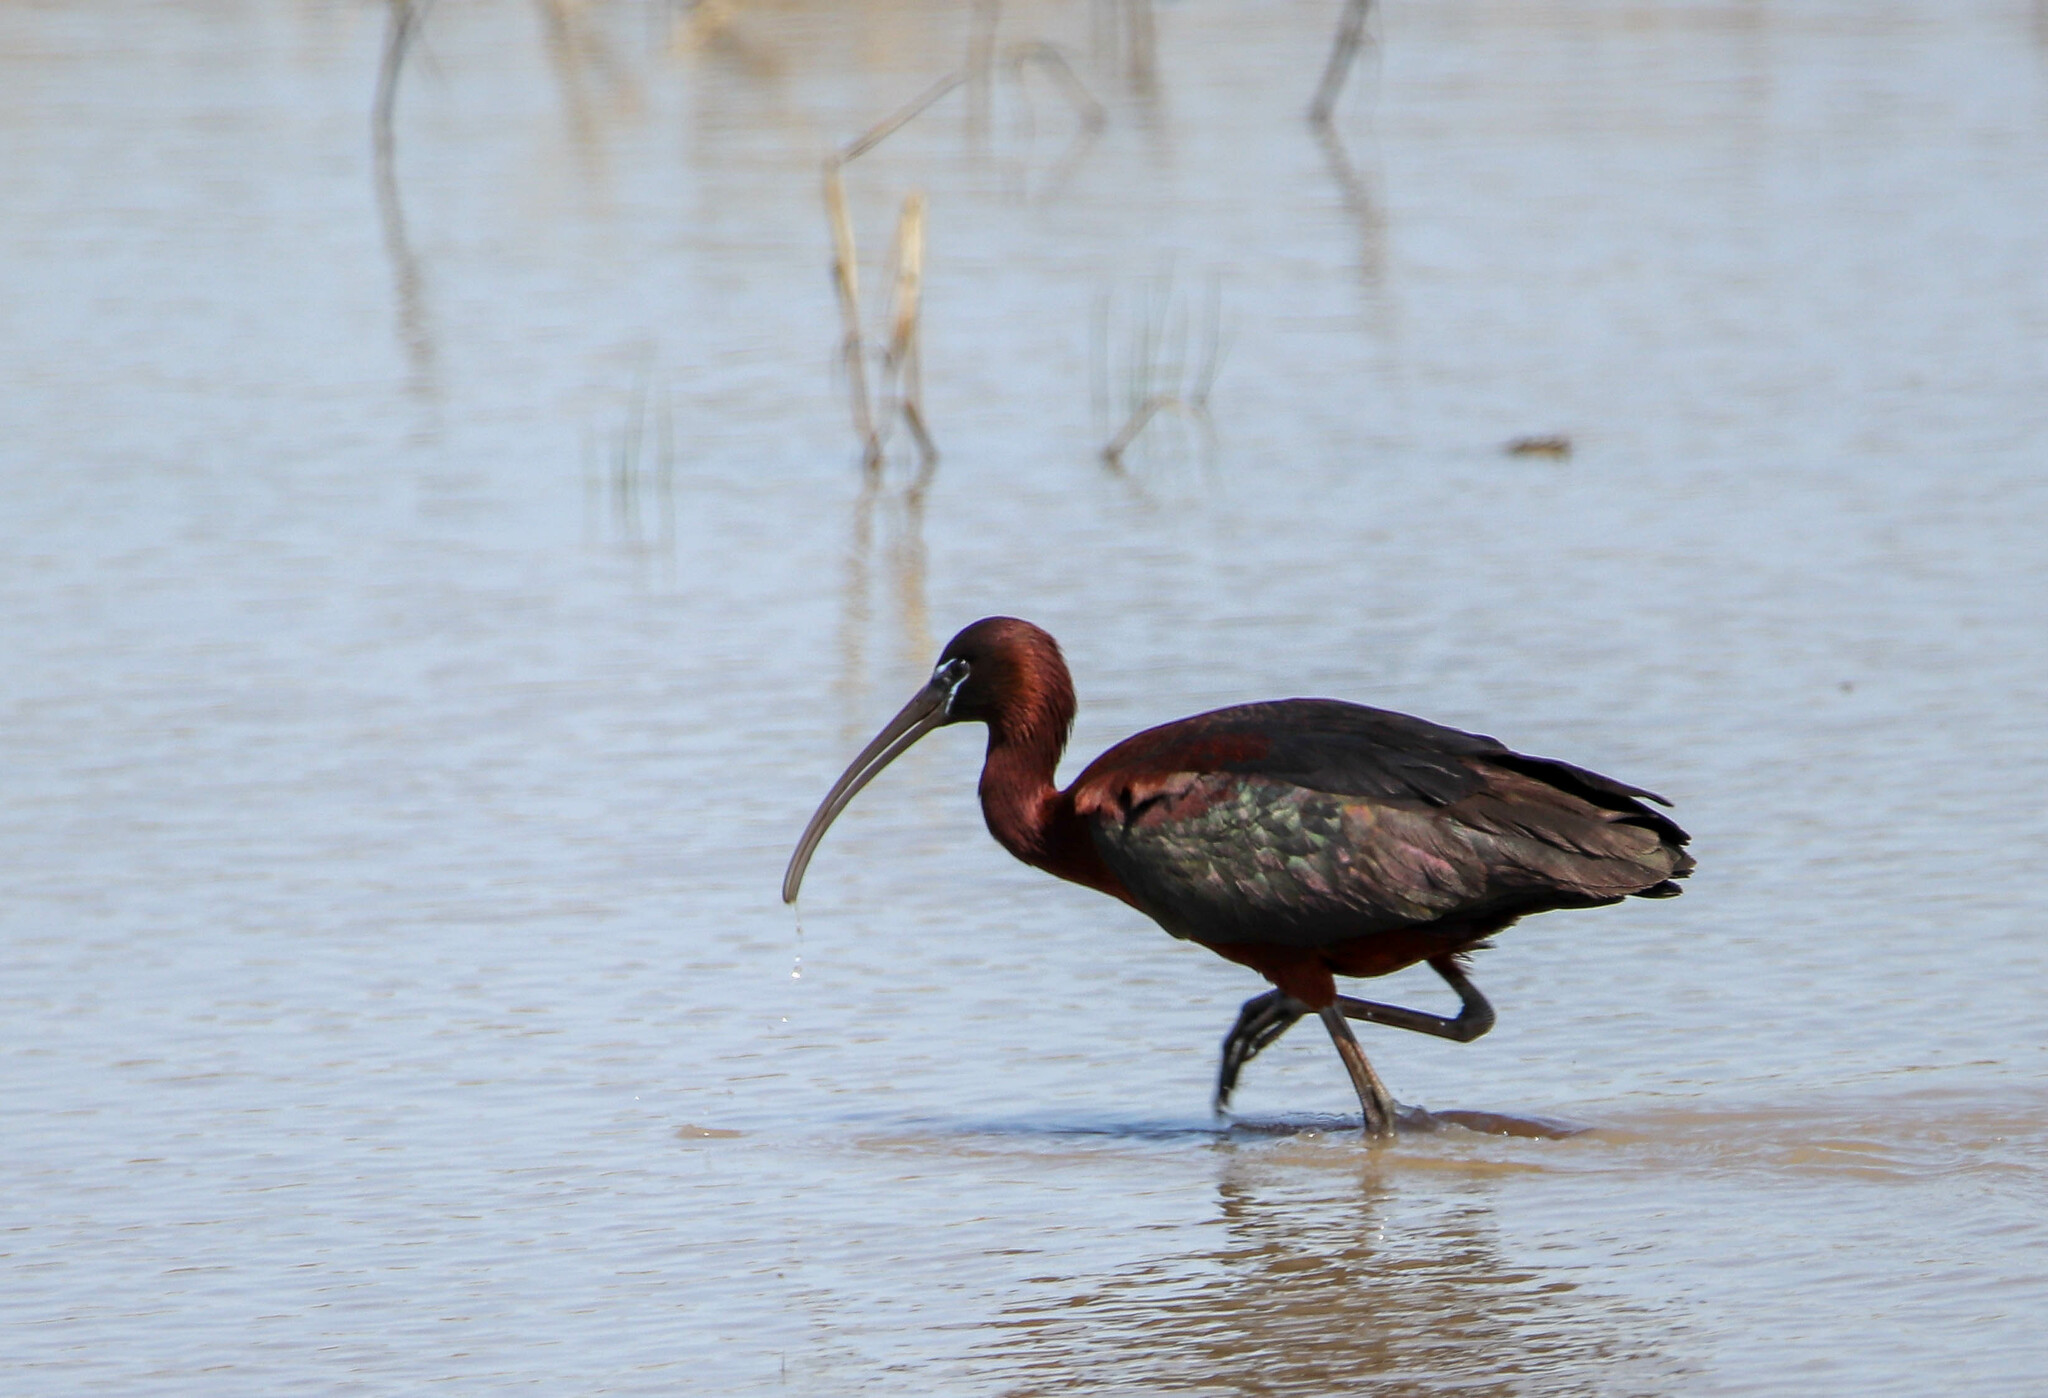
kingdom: Animalia
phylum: Chordata
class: Aves
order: Pelecaniformes
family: Threskiornithidae
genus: Plegadis
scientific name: Plegadis falcinellus
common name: Glossy ibis
